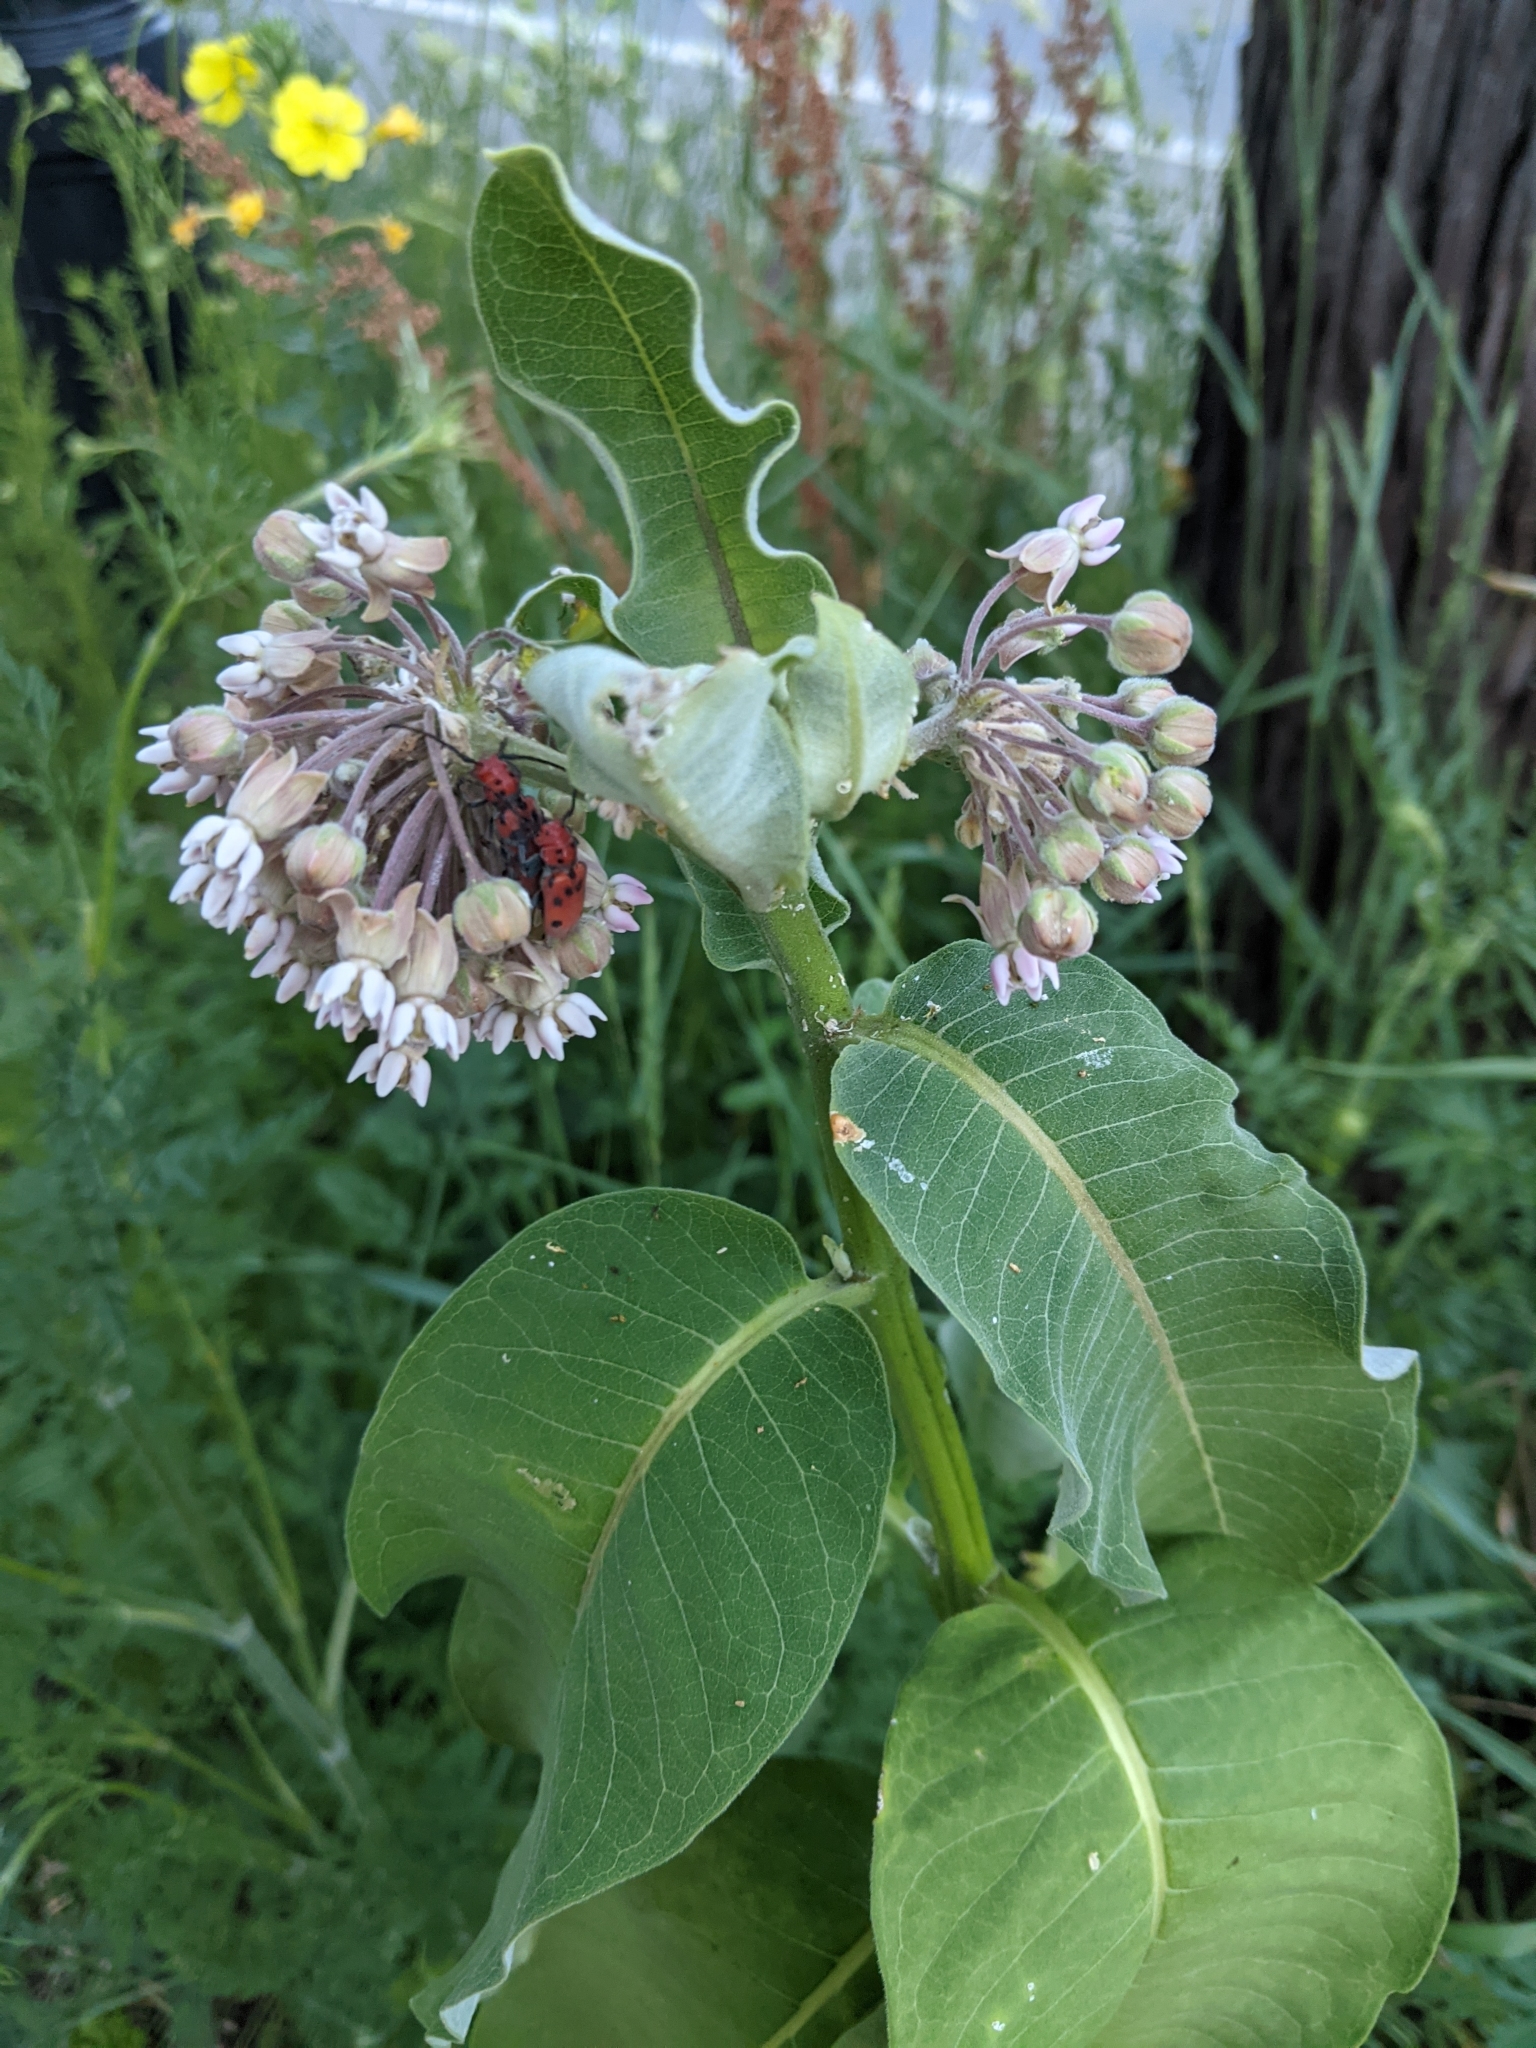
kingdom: Plantae
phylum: Tracheophyta
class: Magnoliopsida
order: Gentianales
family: Apocynaceae
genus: Asclepias
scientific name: Asclepias syriaca
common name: Common milkweed
